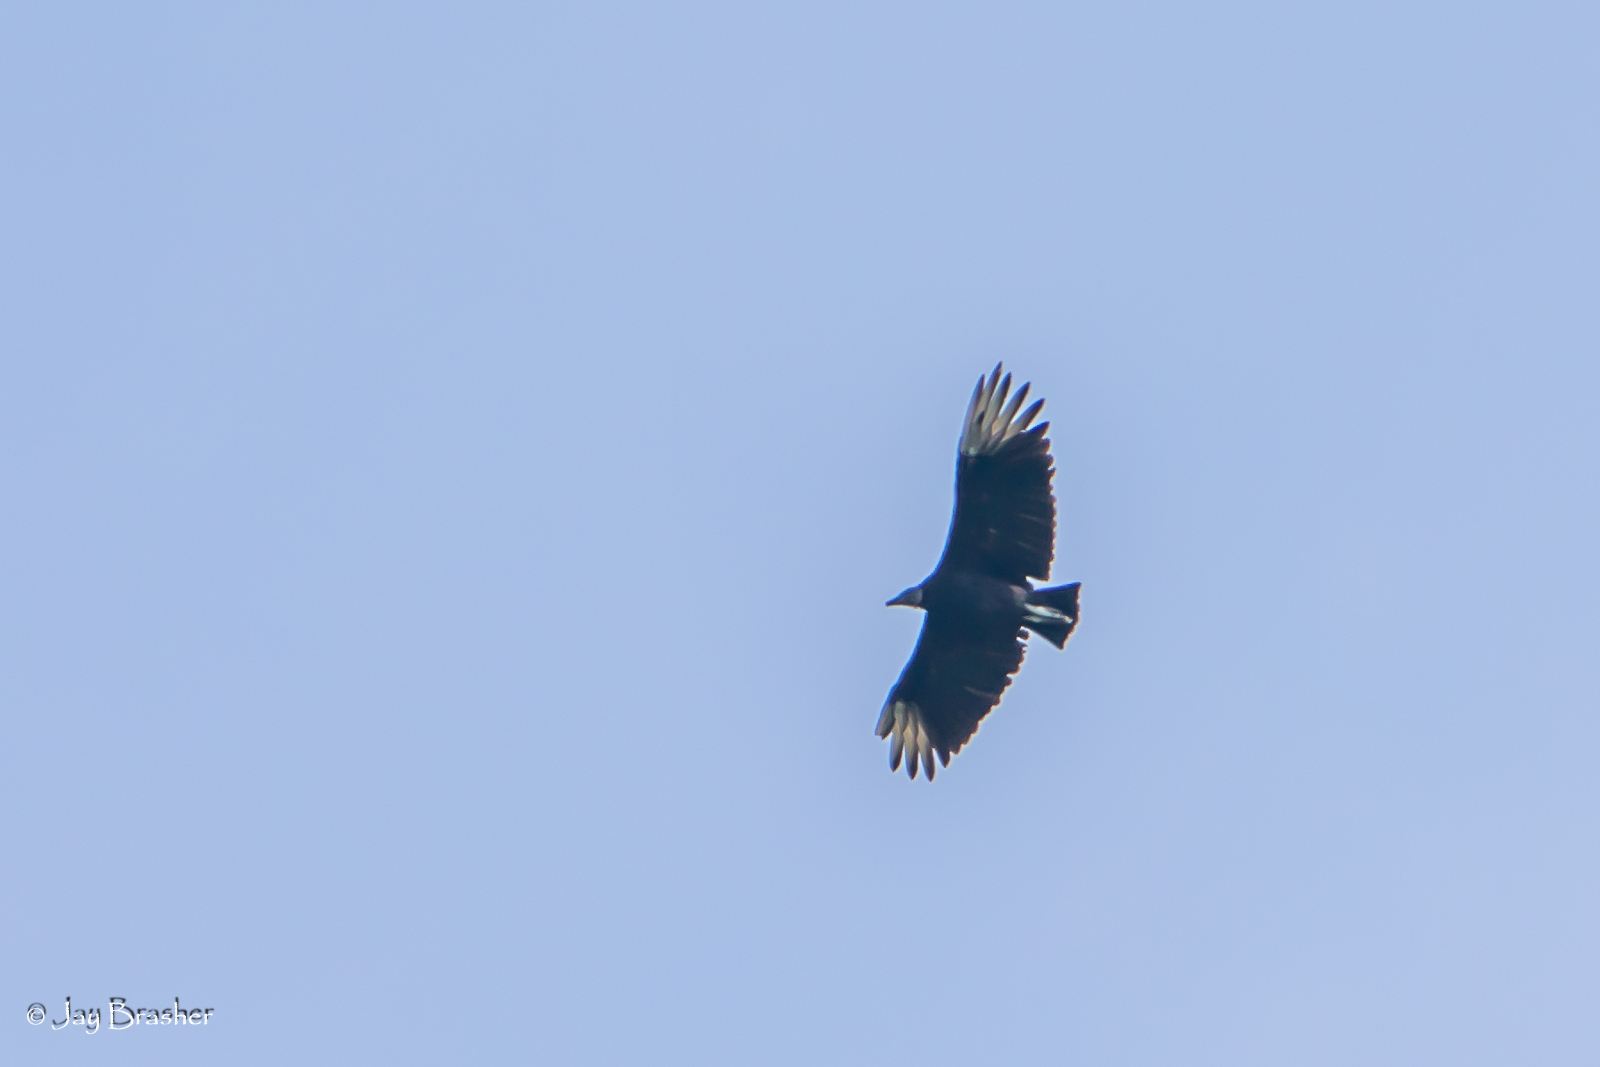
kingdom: Animalia
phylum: Chordata
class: Aves
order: Accipitriformes
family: Cathartidae
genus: Coragyps
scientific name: Coragyps atratus
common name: Black vulture
